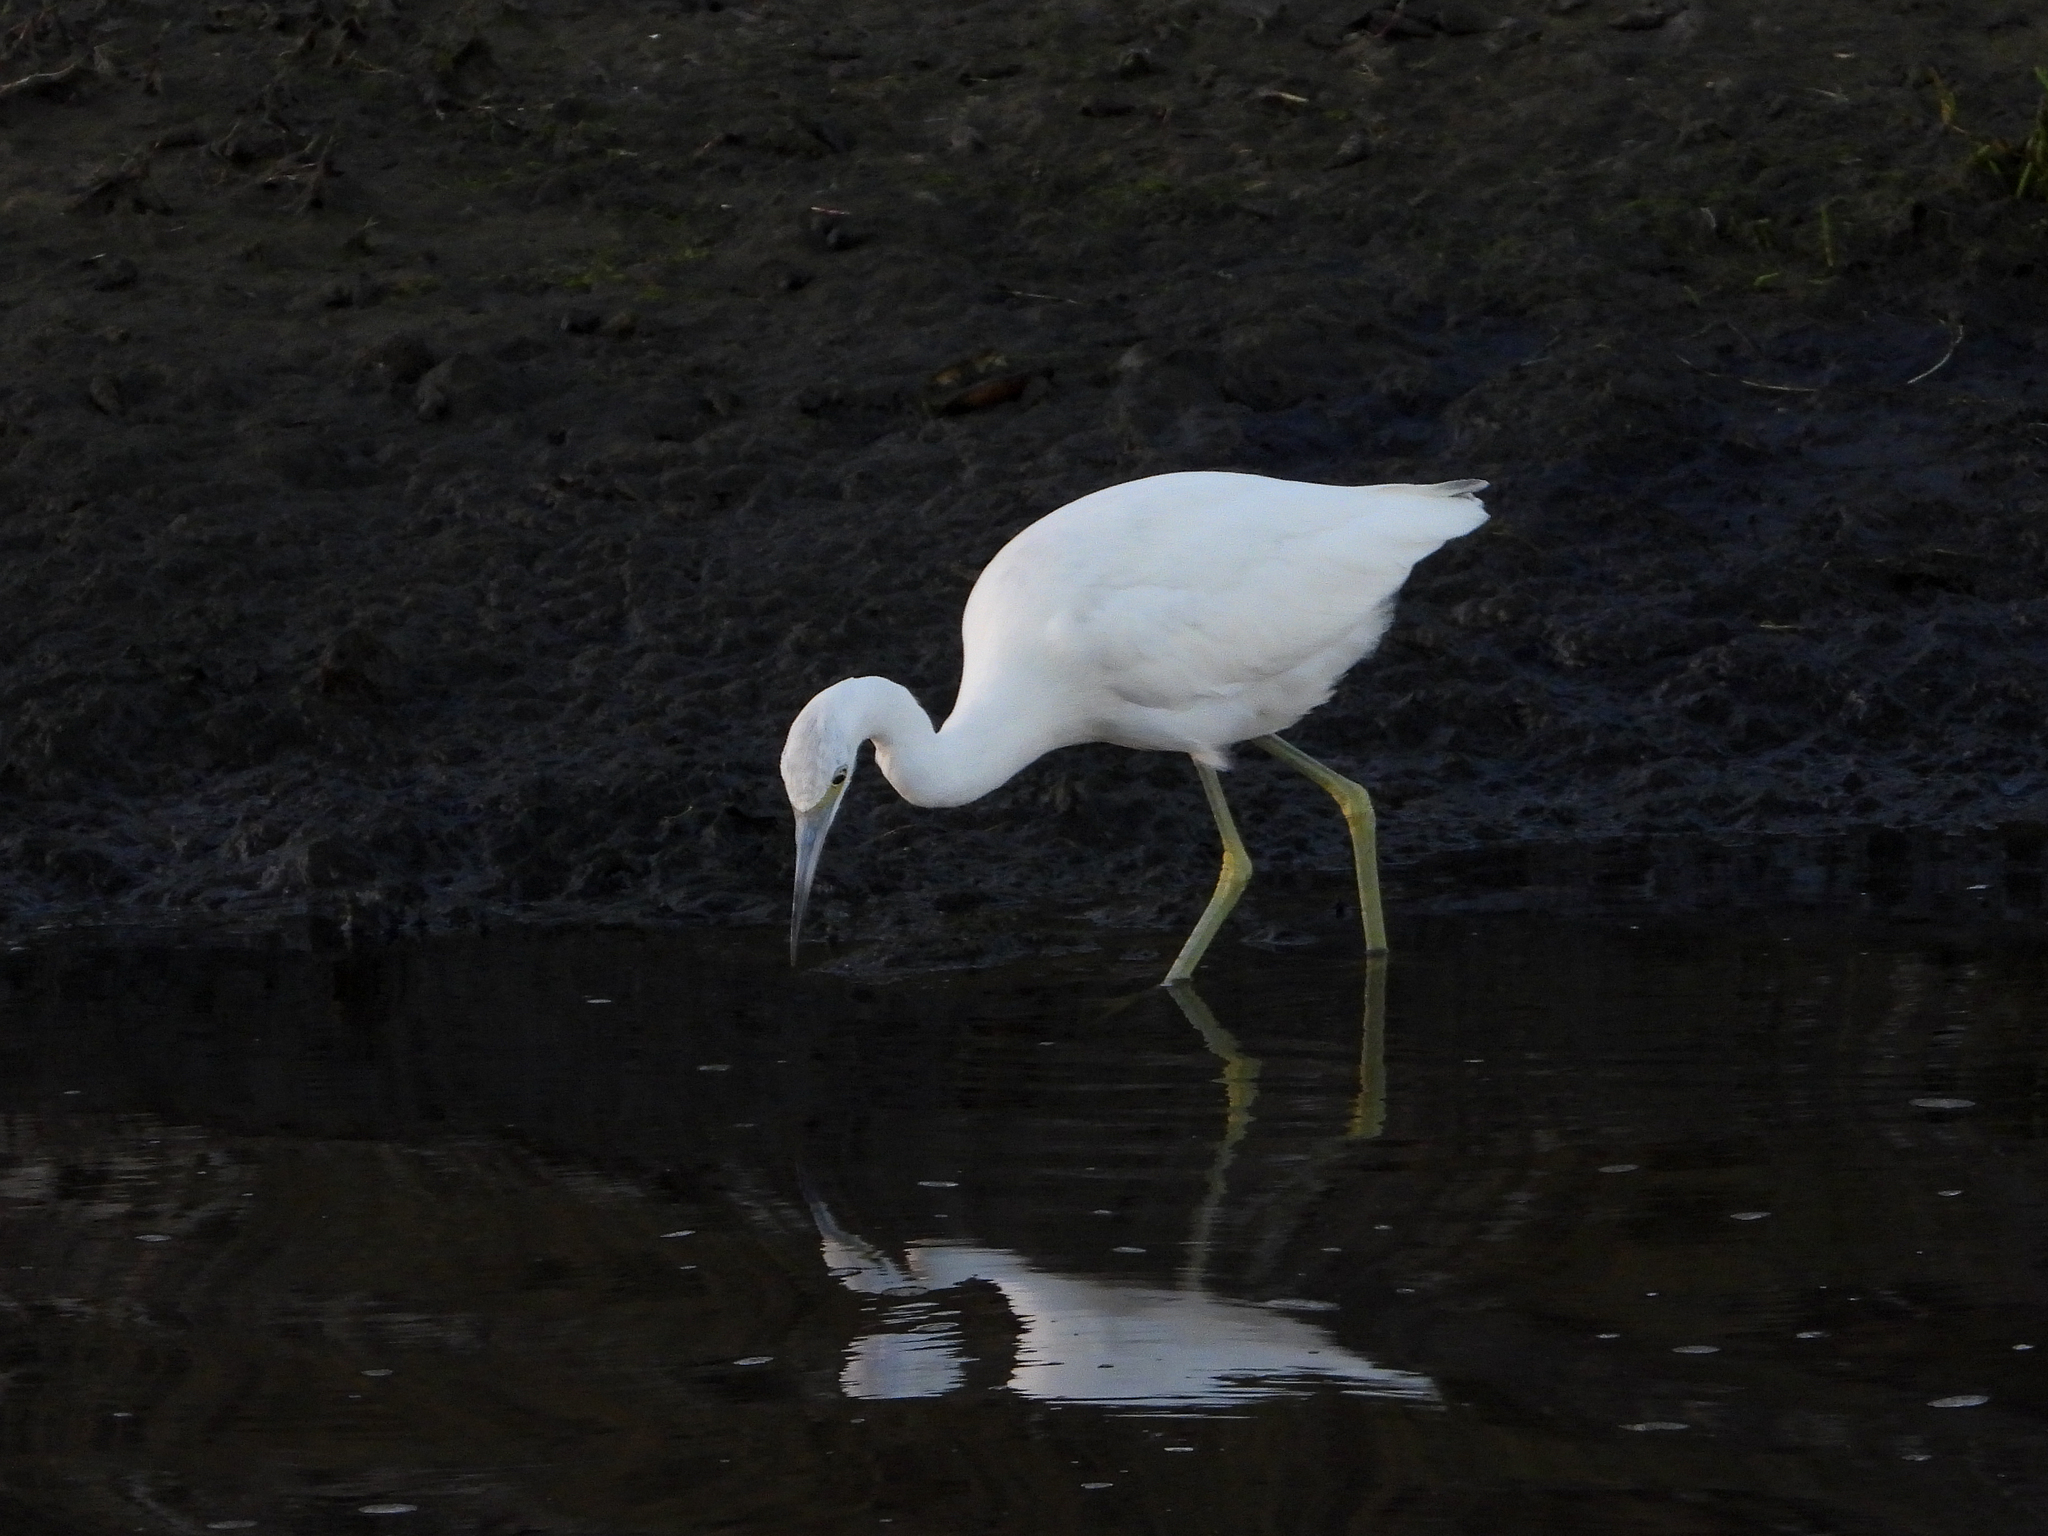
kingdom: Animalia
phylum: Chordata
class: Aves
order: Pelecaniformes
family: Ardeidae
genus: Egretta
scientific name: Egretta caerulea
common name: Little blue heron
